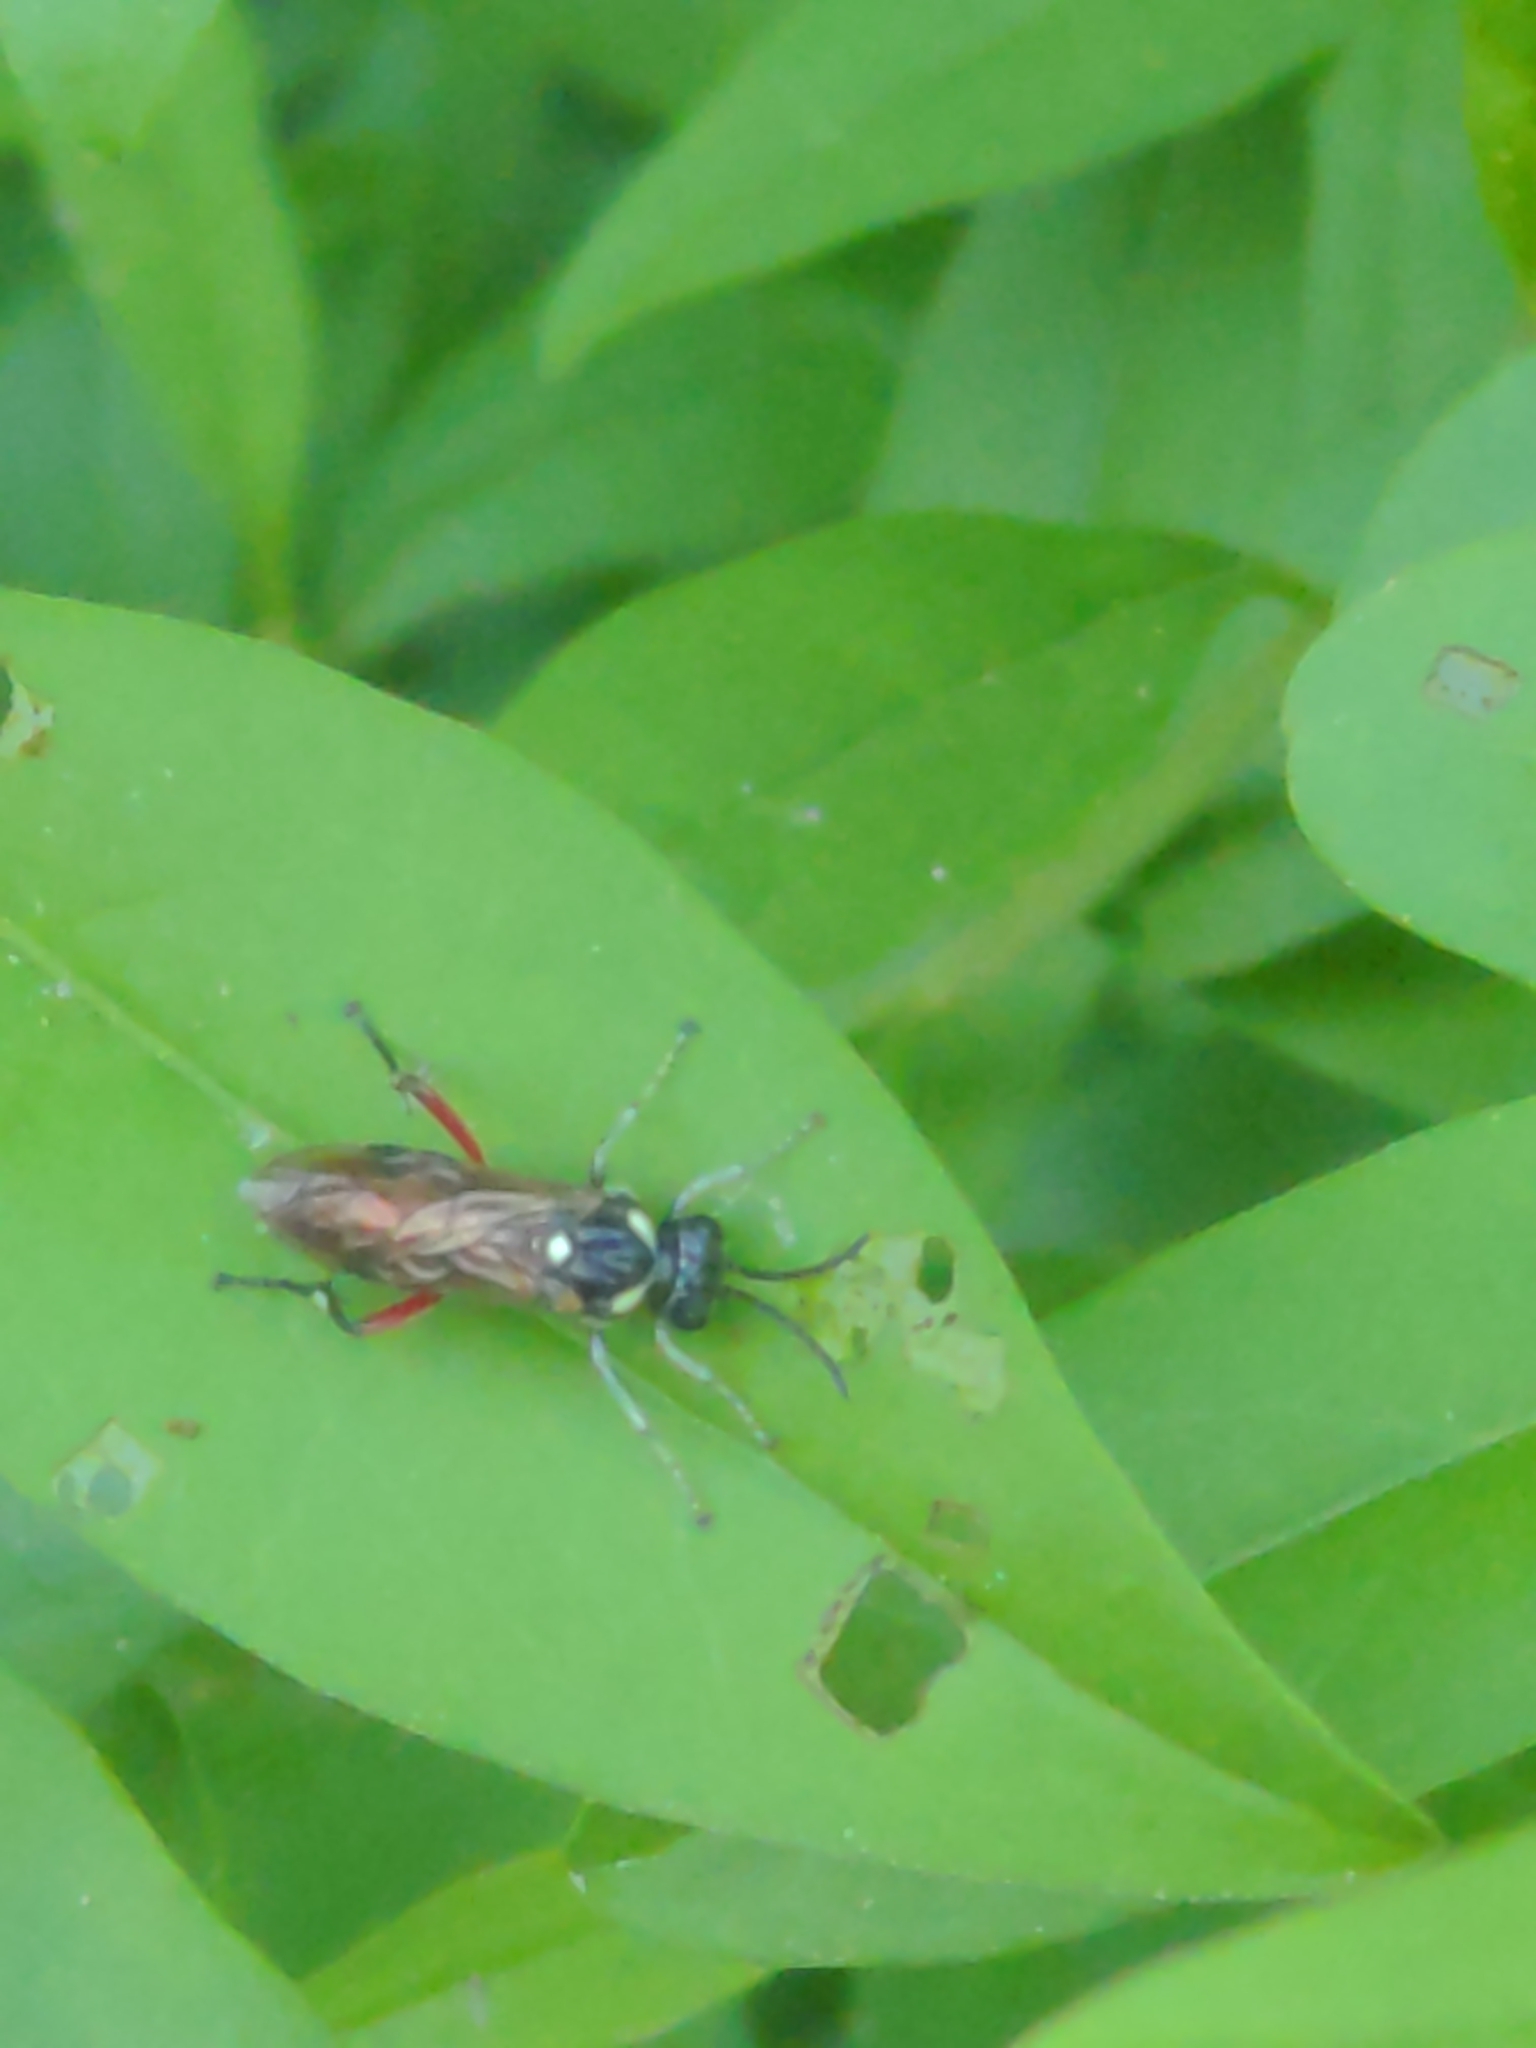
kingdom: Animalia
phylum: Arthropoda
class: Insecta
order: Hymenoptera
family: Tenthredinidae
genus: Macrophya
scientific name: Macrophya punctumalbum
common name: Sawfly
